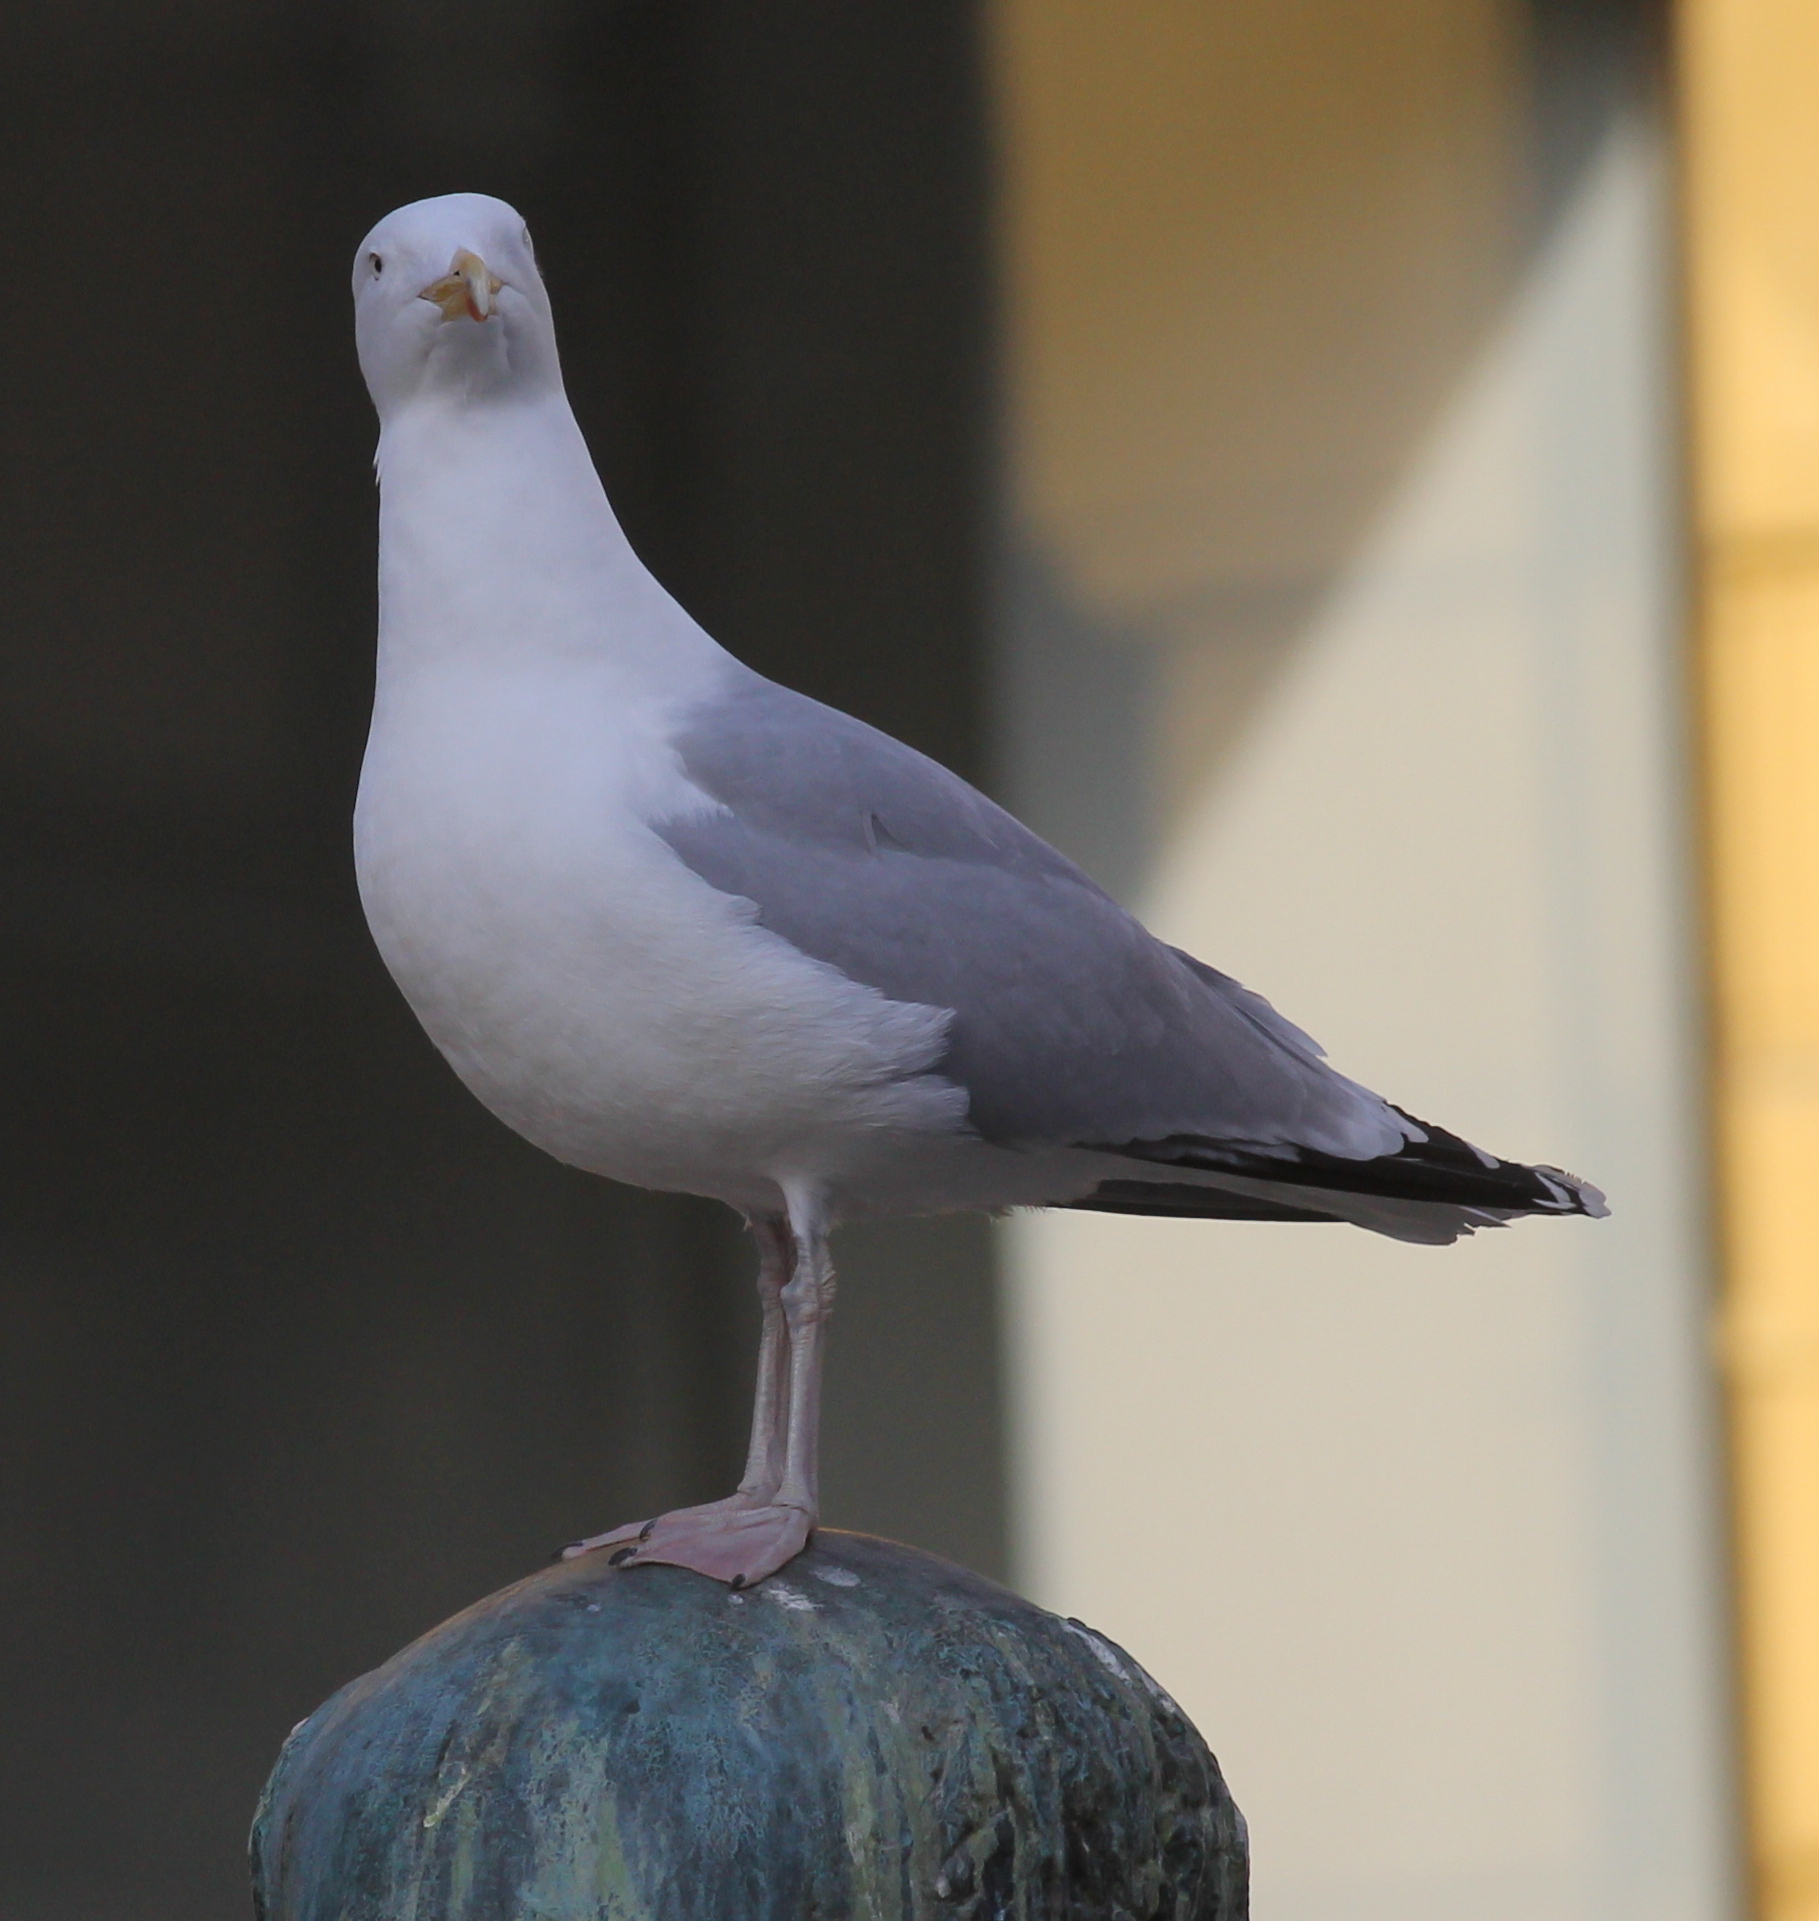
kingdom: Animalia
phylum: Chordata
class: Aves
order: Charadriiformes
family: Laridae
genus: Larus
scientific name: Larus argentatus
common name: Herring gull
